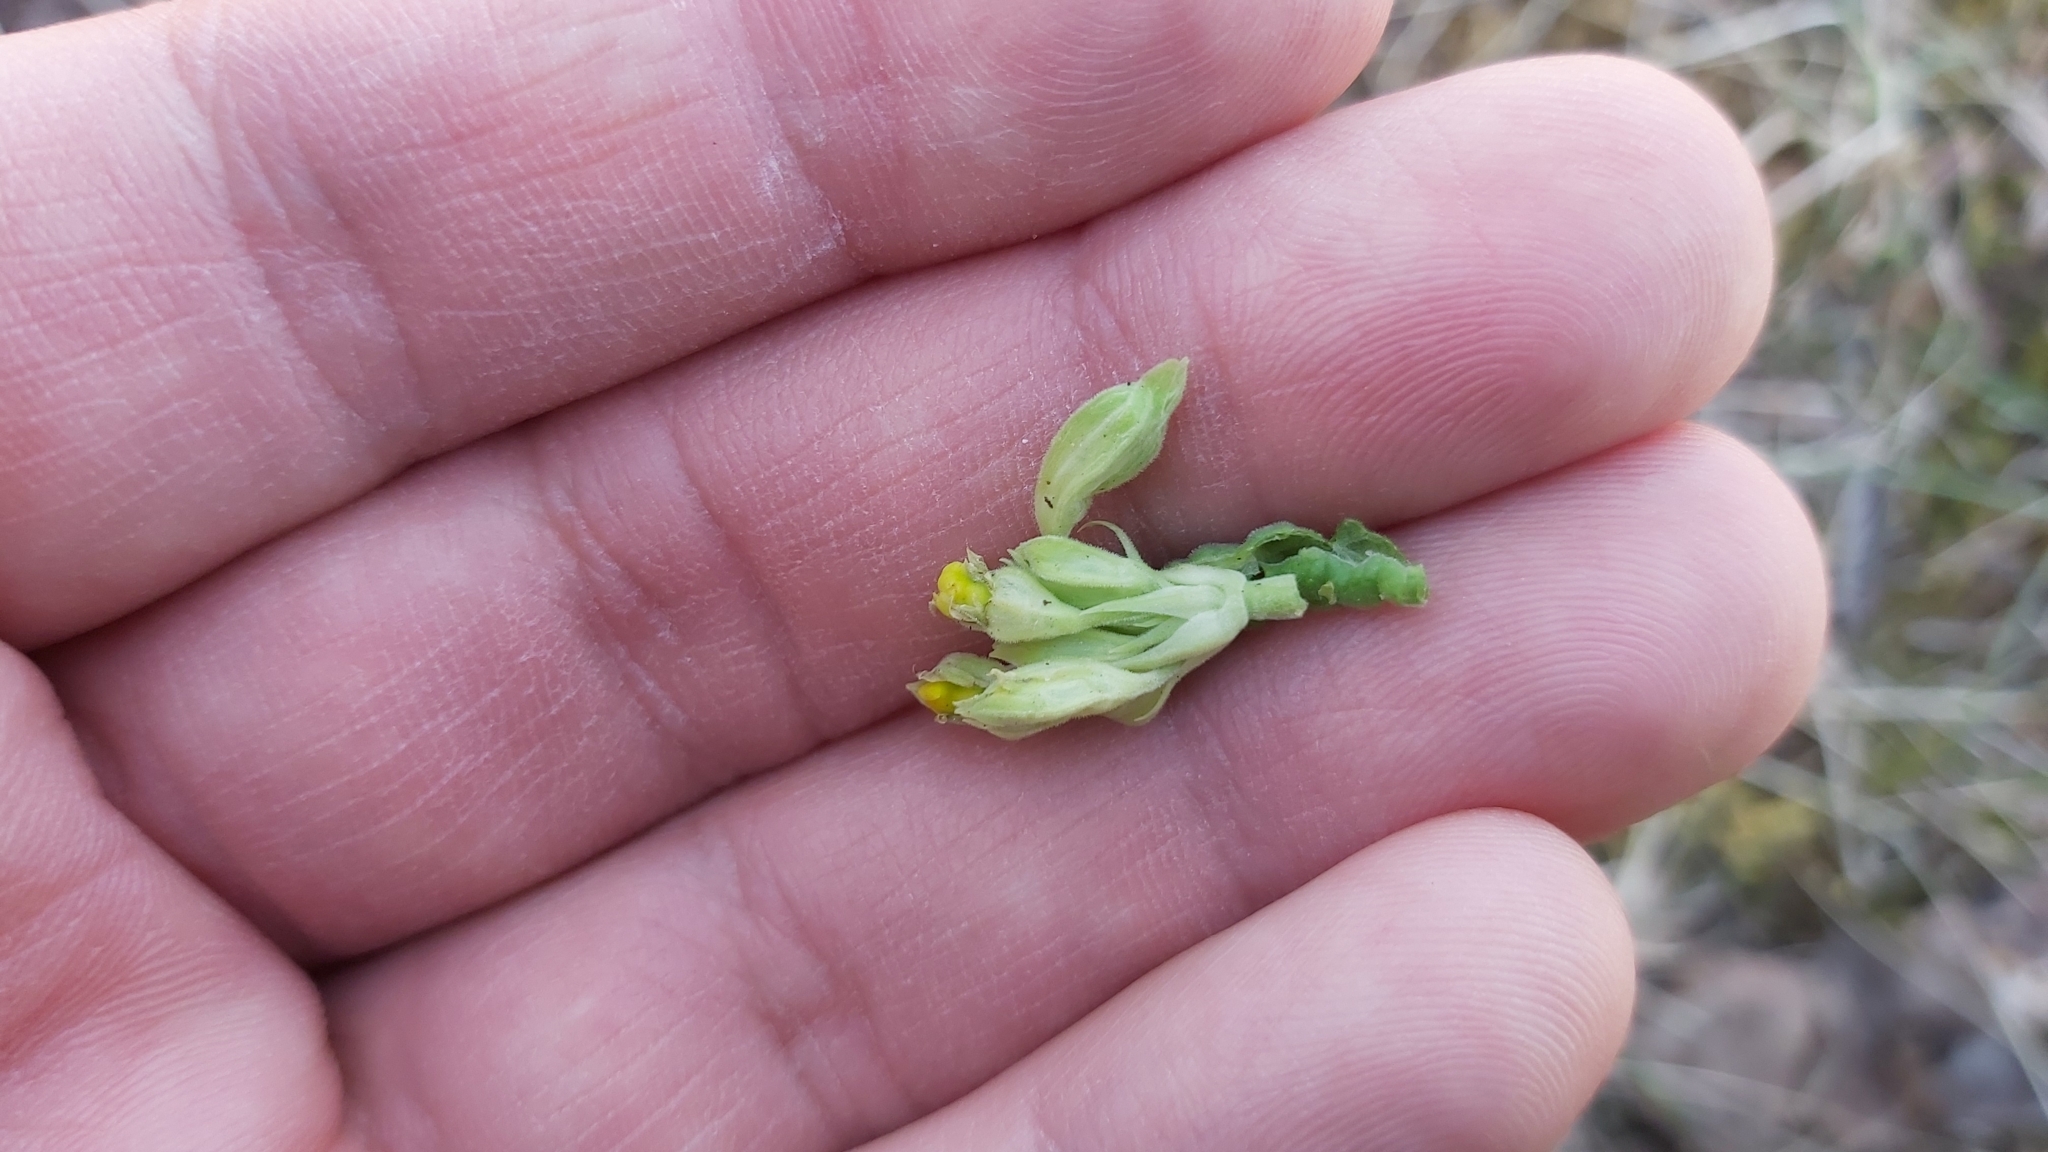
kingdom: Plantae
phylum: Tracheophyta
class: Magnoliopsida
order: Ericales
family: Primulaceae
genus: Primula
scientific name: Primula veris
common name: Cowslip
